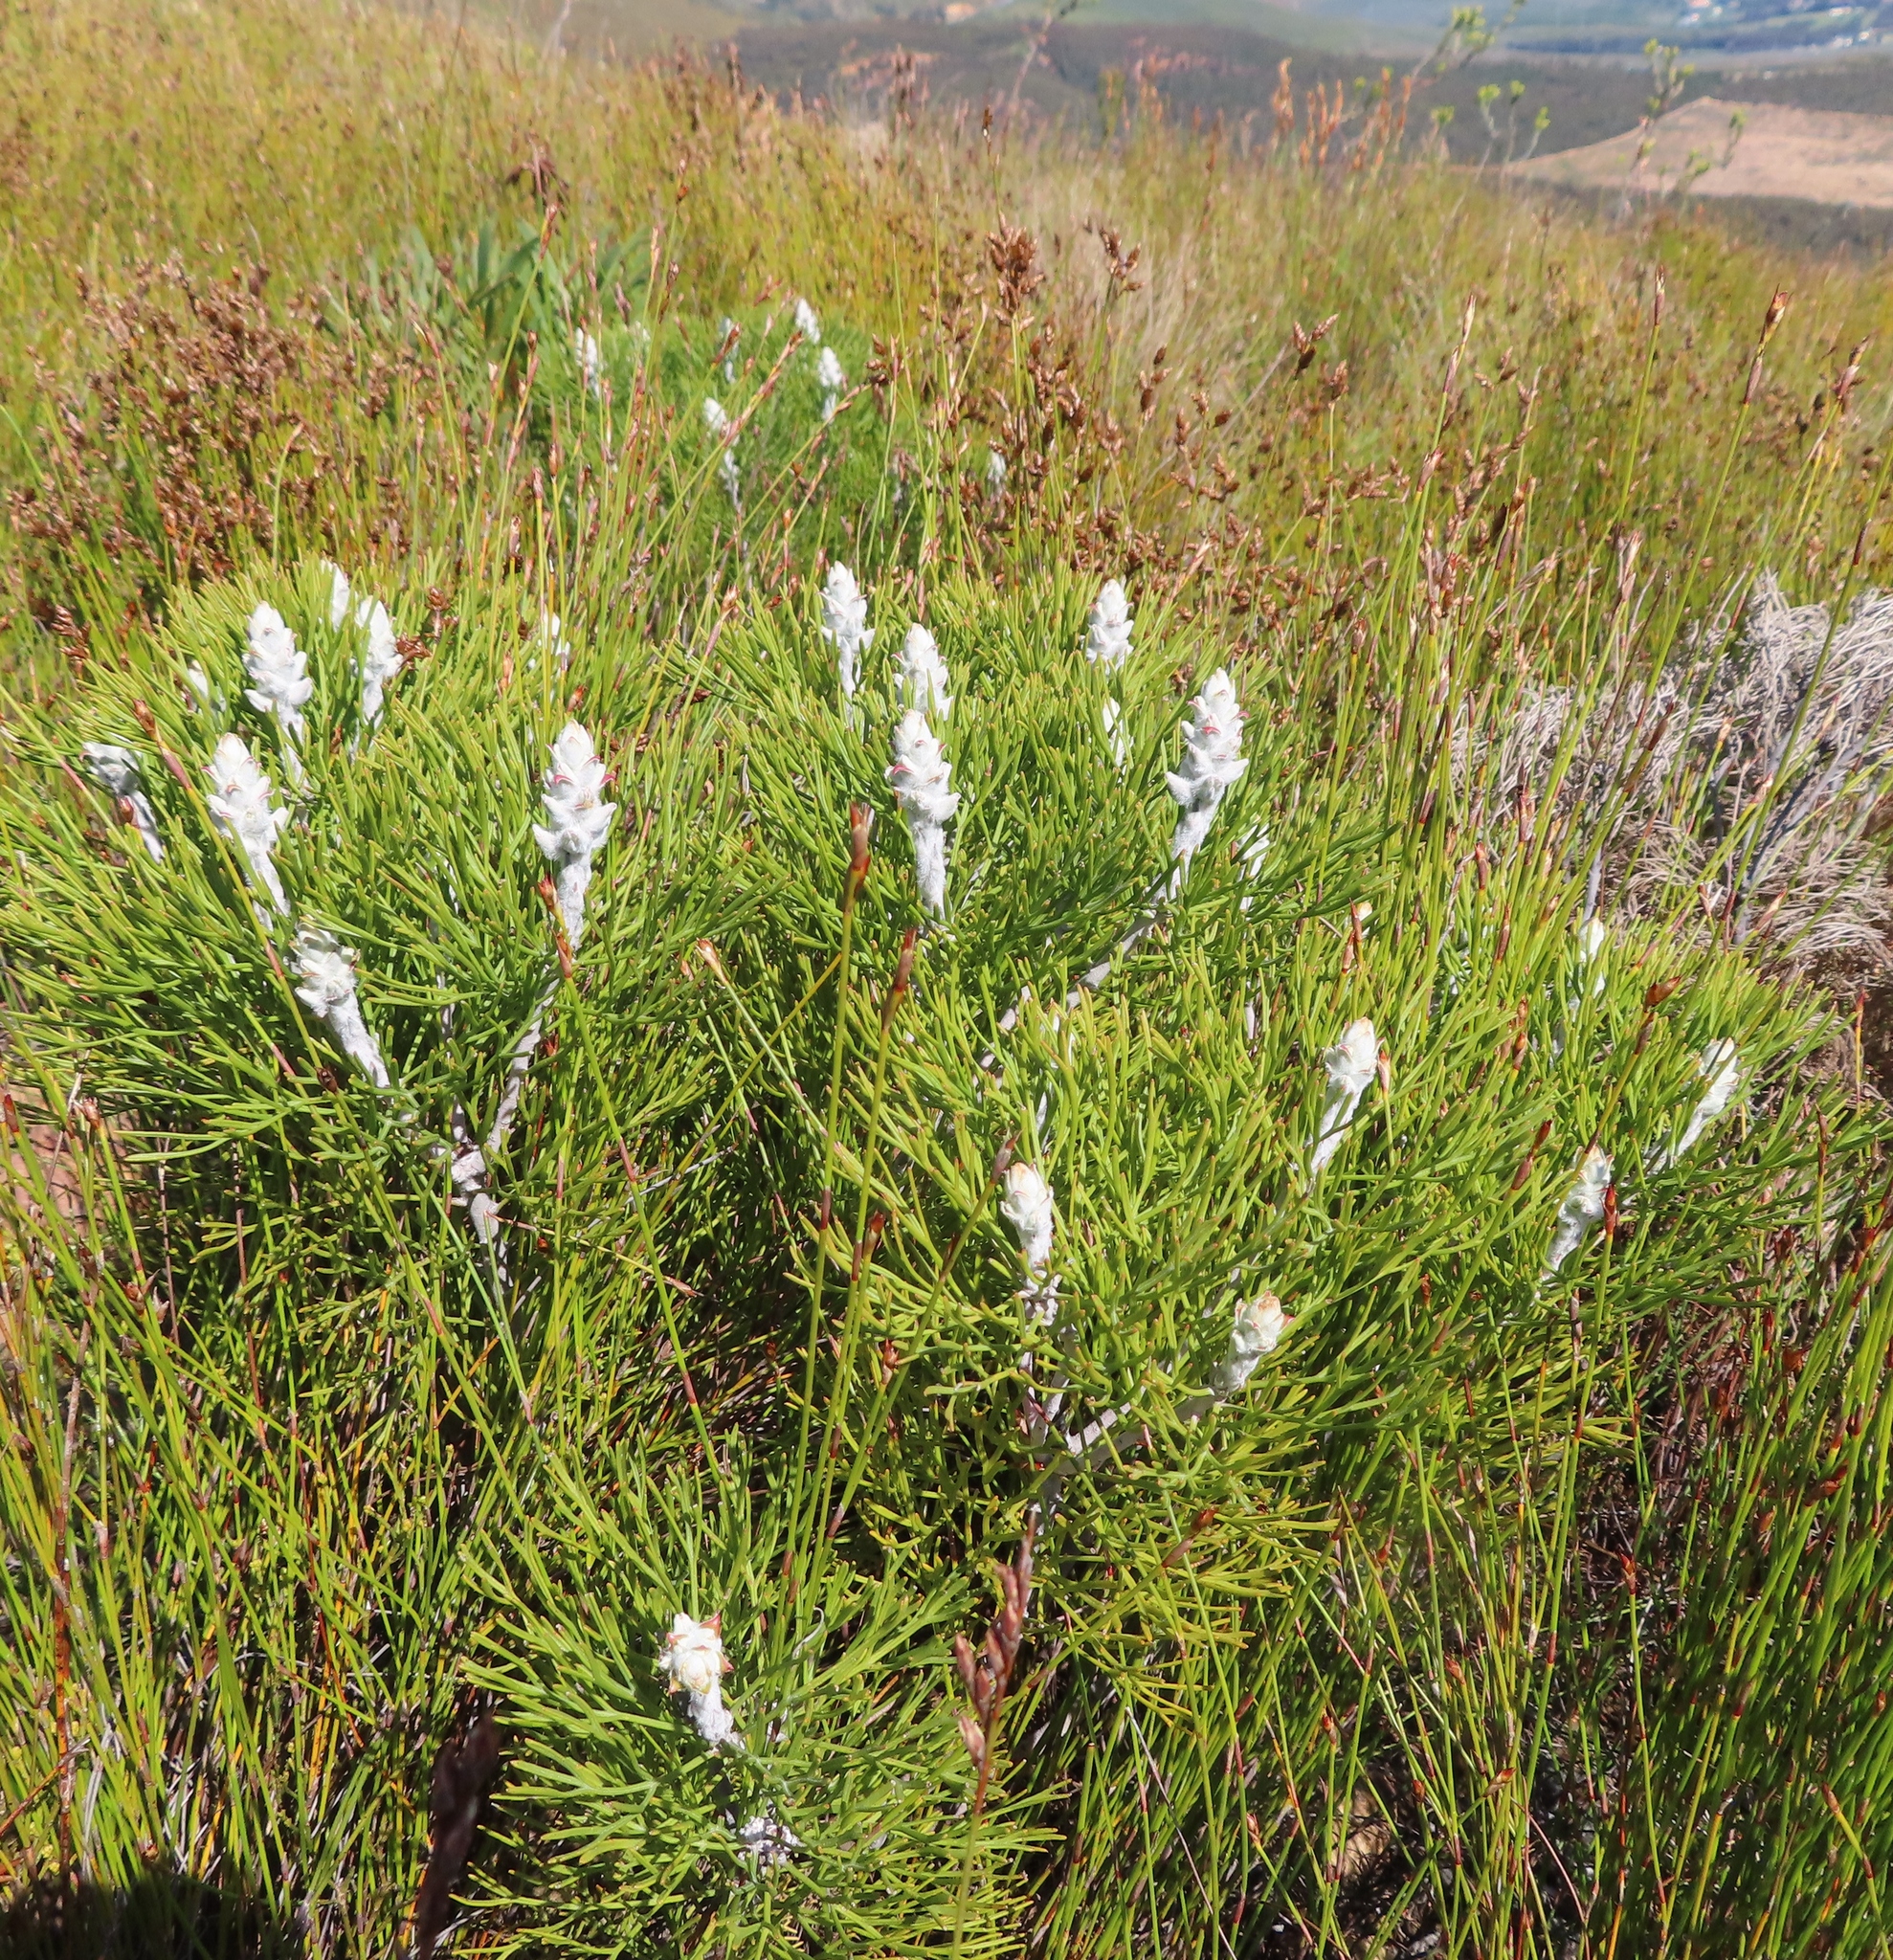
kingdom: Plantae
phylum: Tracheophyta
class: Magnoliopsida
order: Proteales
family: Proteaceae
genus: Paranomus
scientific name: Paranomus spicatus
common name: Kogelberg sceptre
